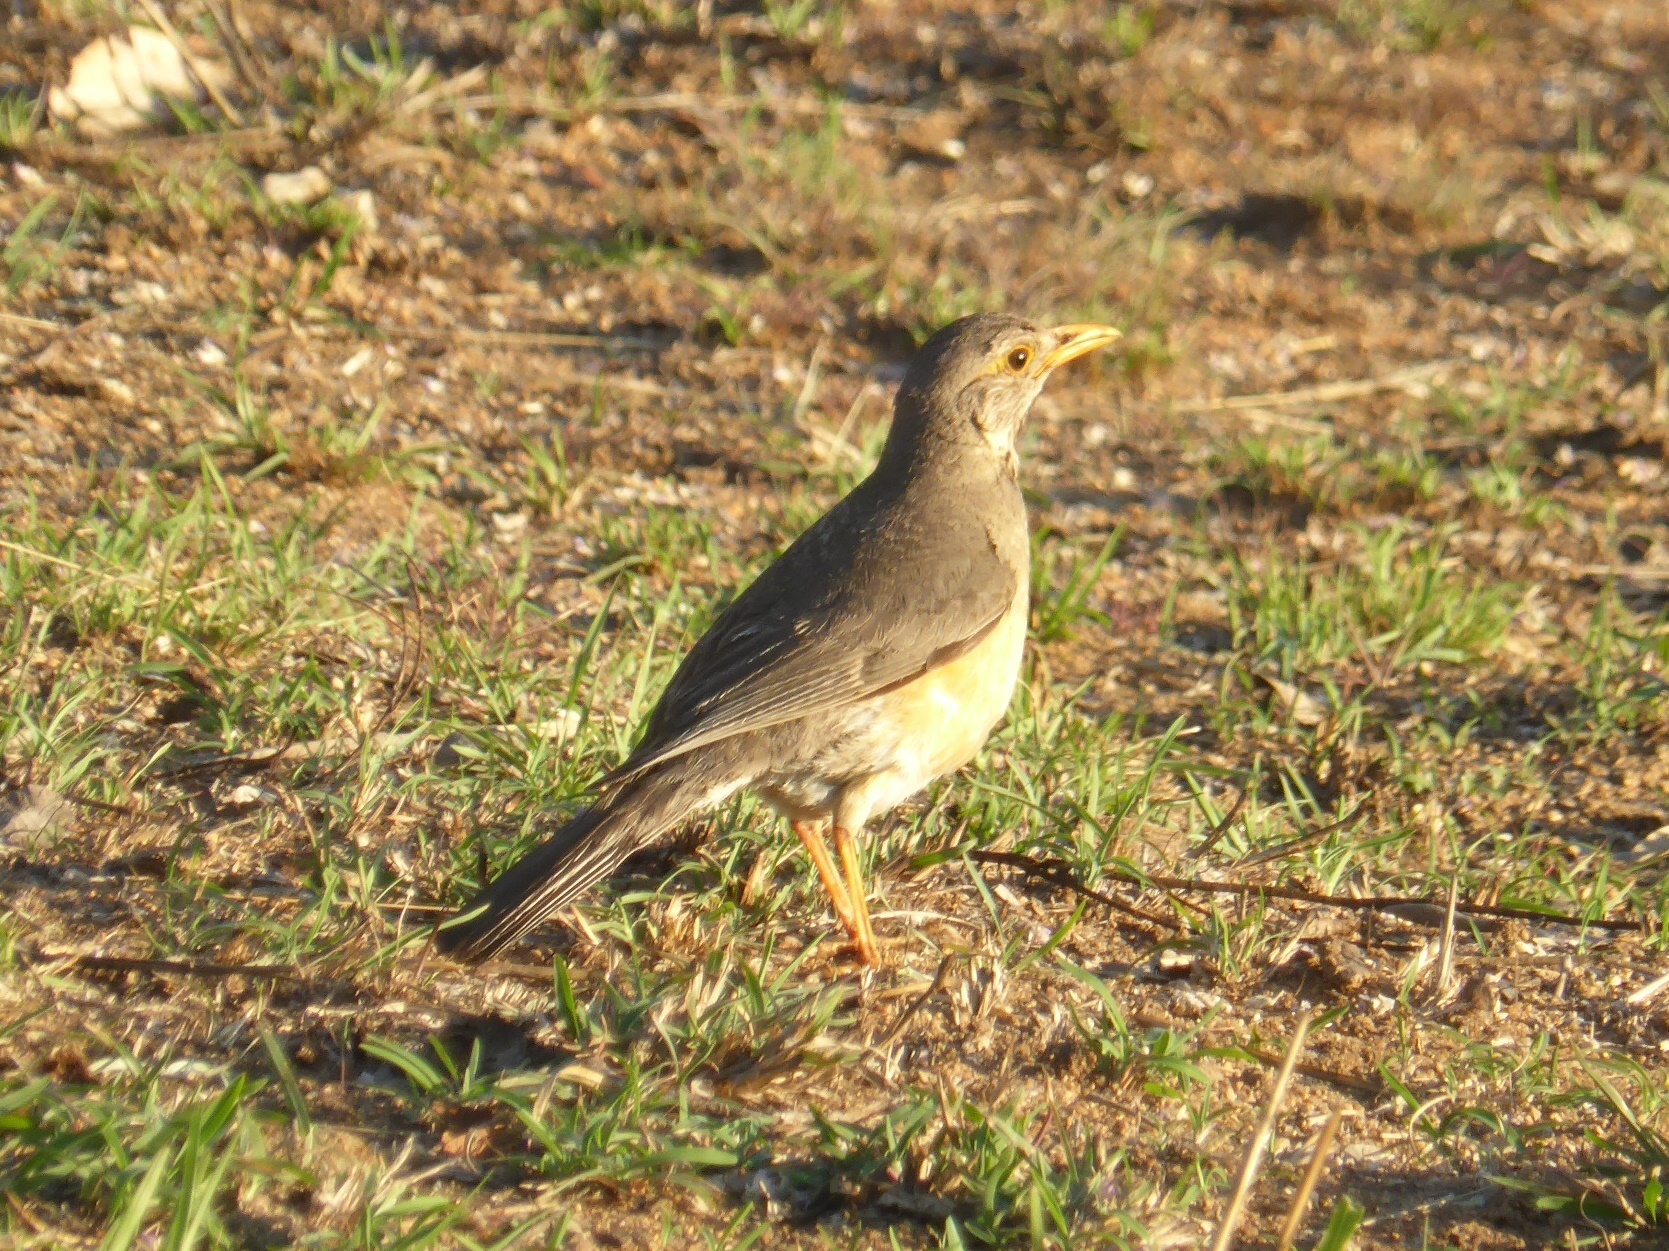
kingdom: Animalia
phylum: Chordata
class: Aves
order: Passeriformes
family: Turdidae
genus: Turdus
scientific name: Turdus libonyana
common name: Kurrichane thrush
